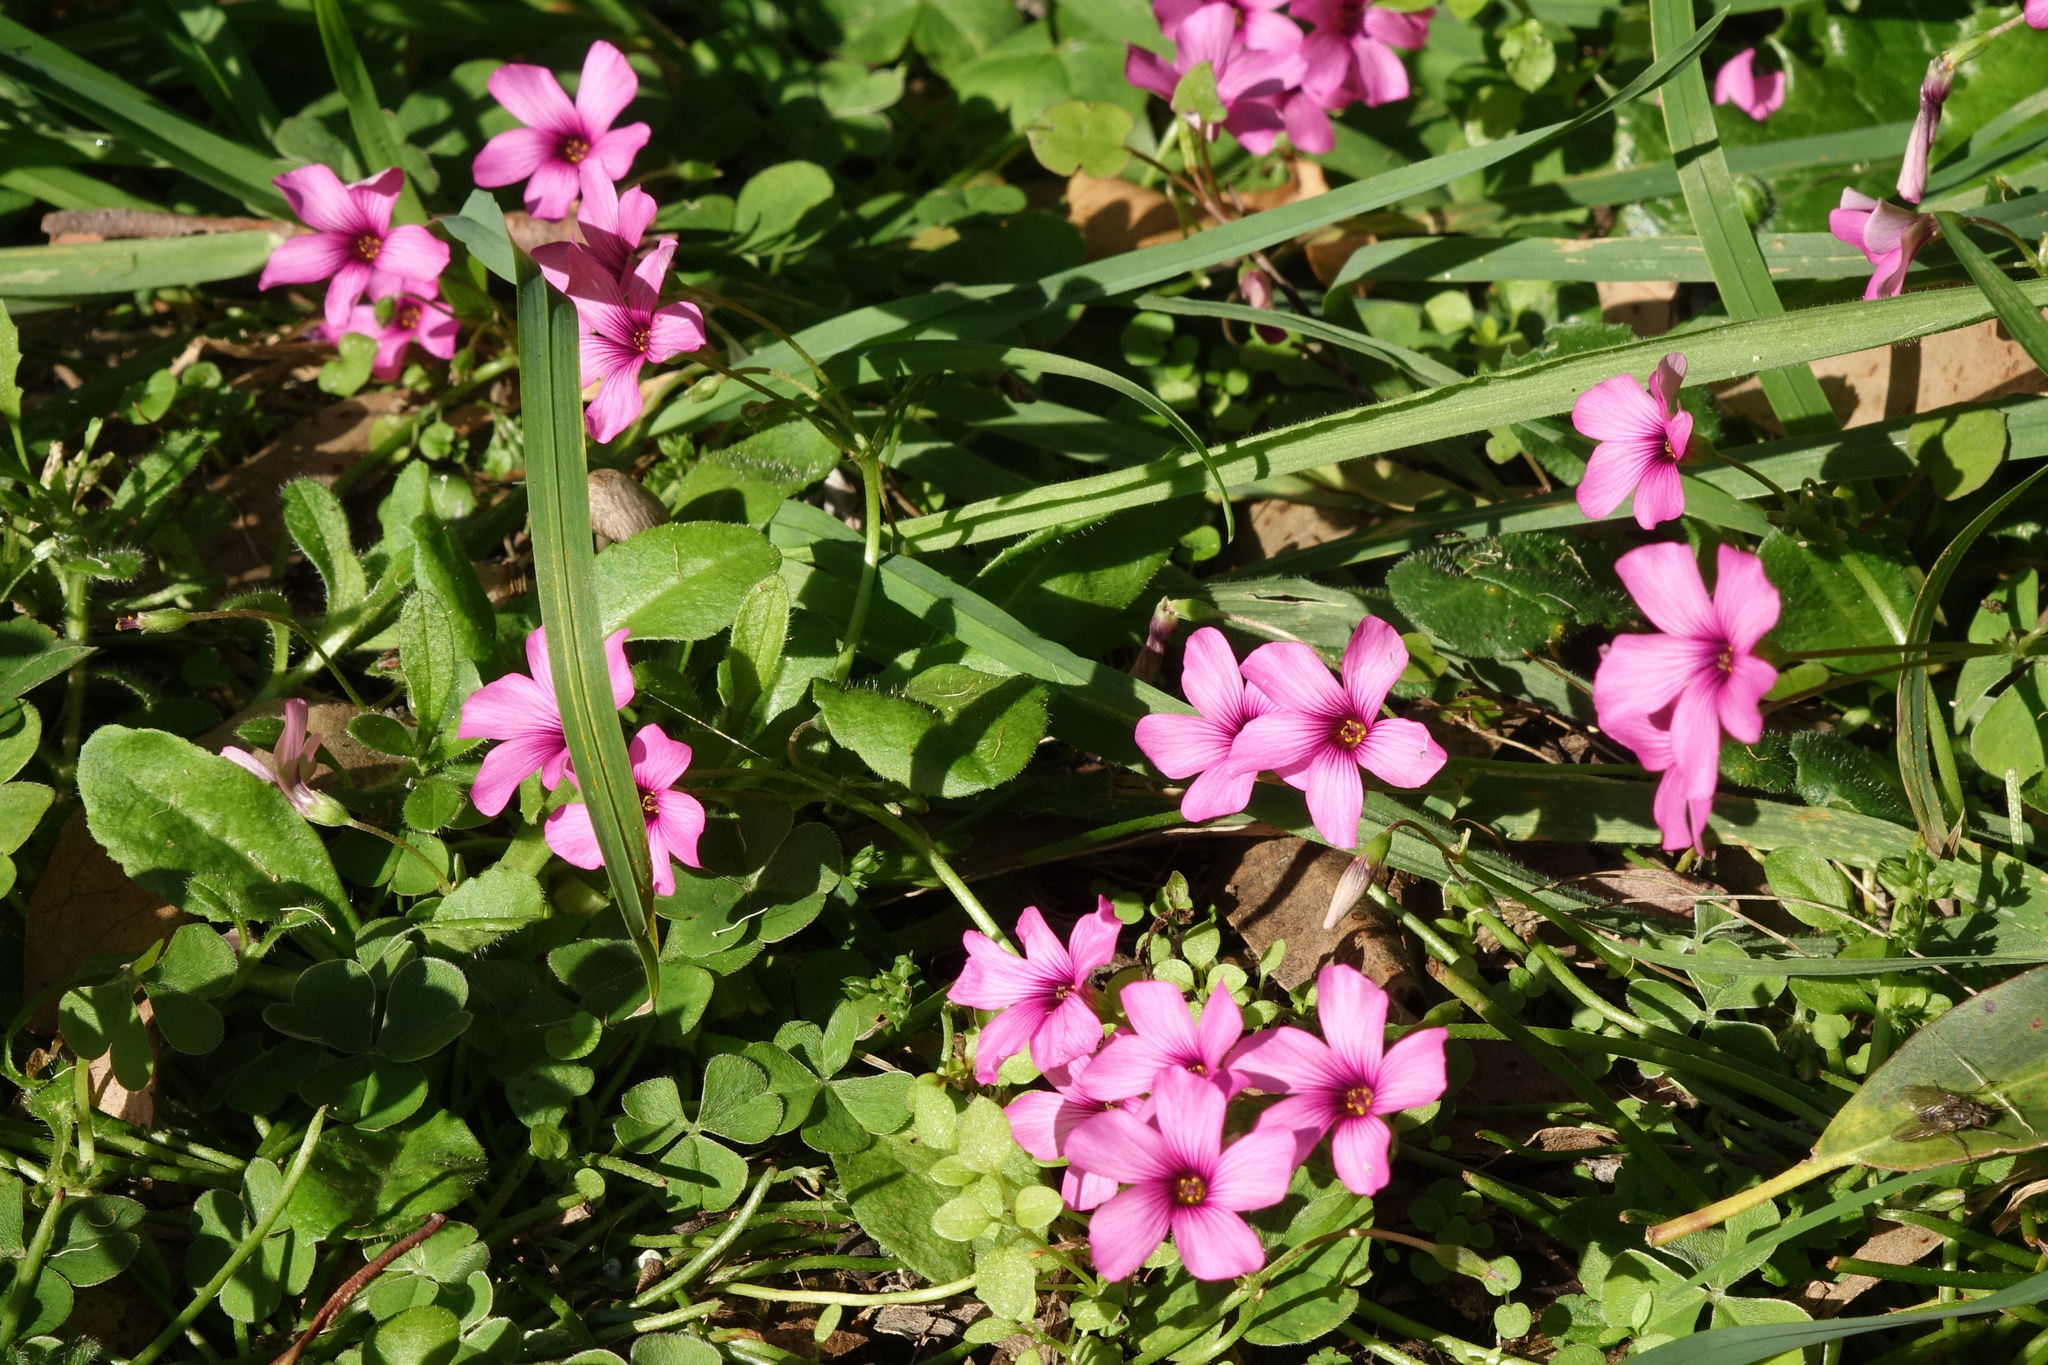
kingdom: Plantae
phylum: Tracheophyta
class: Magnoliopsida
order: Oxalidales
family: Oxalidaceae
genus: Oxalis
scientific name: Oxalis articulata
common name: Pink-sorrel
